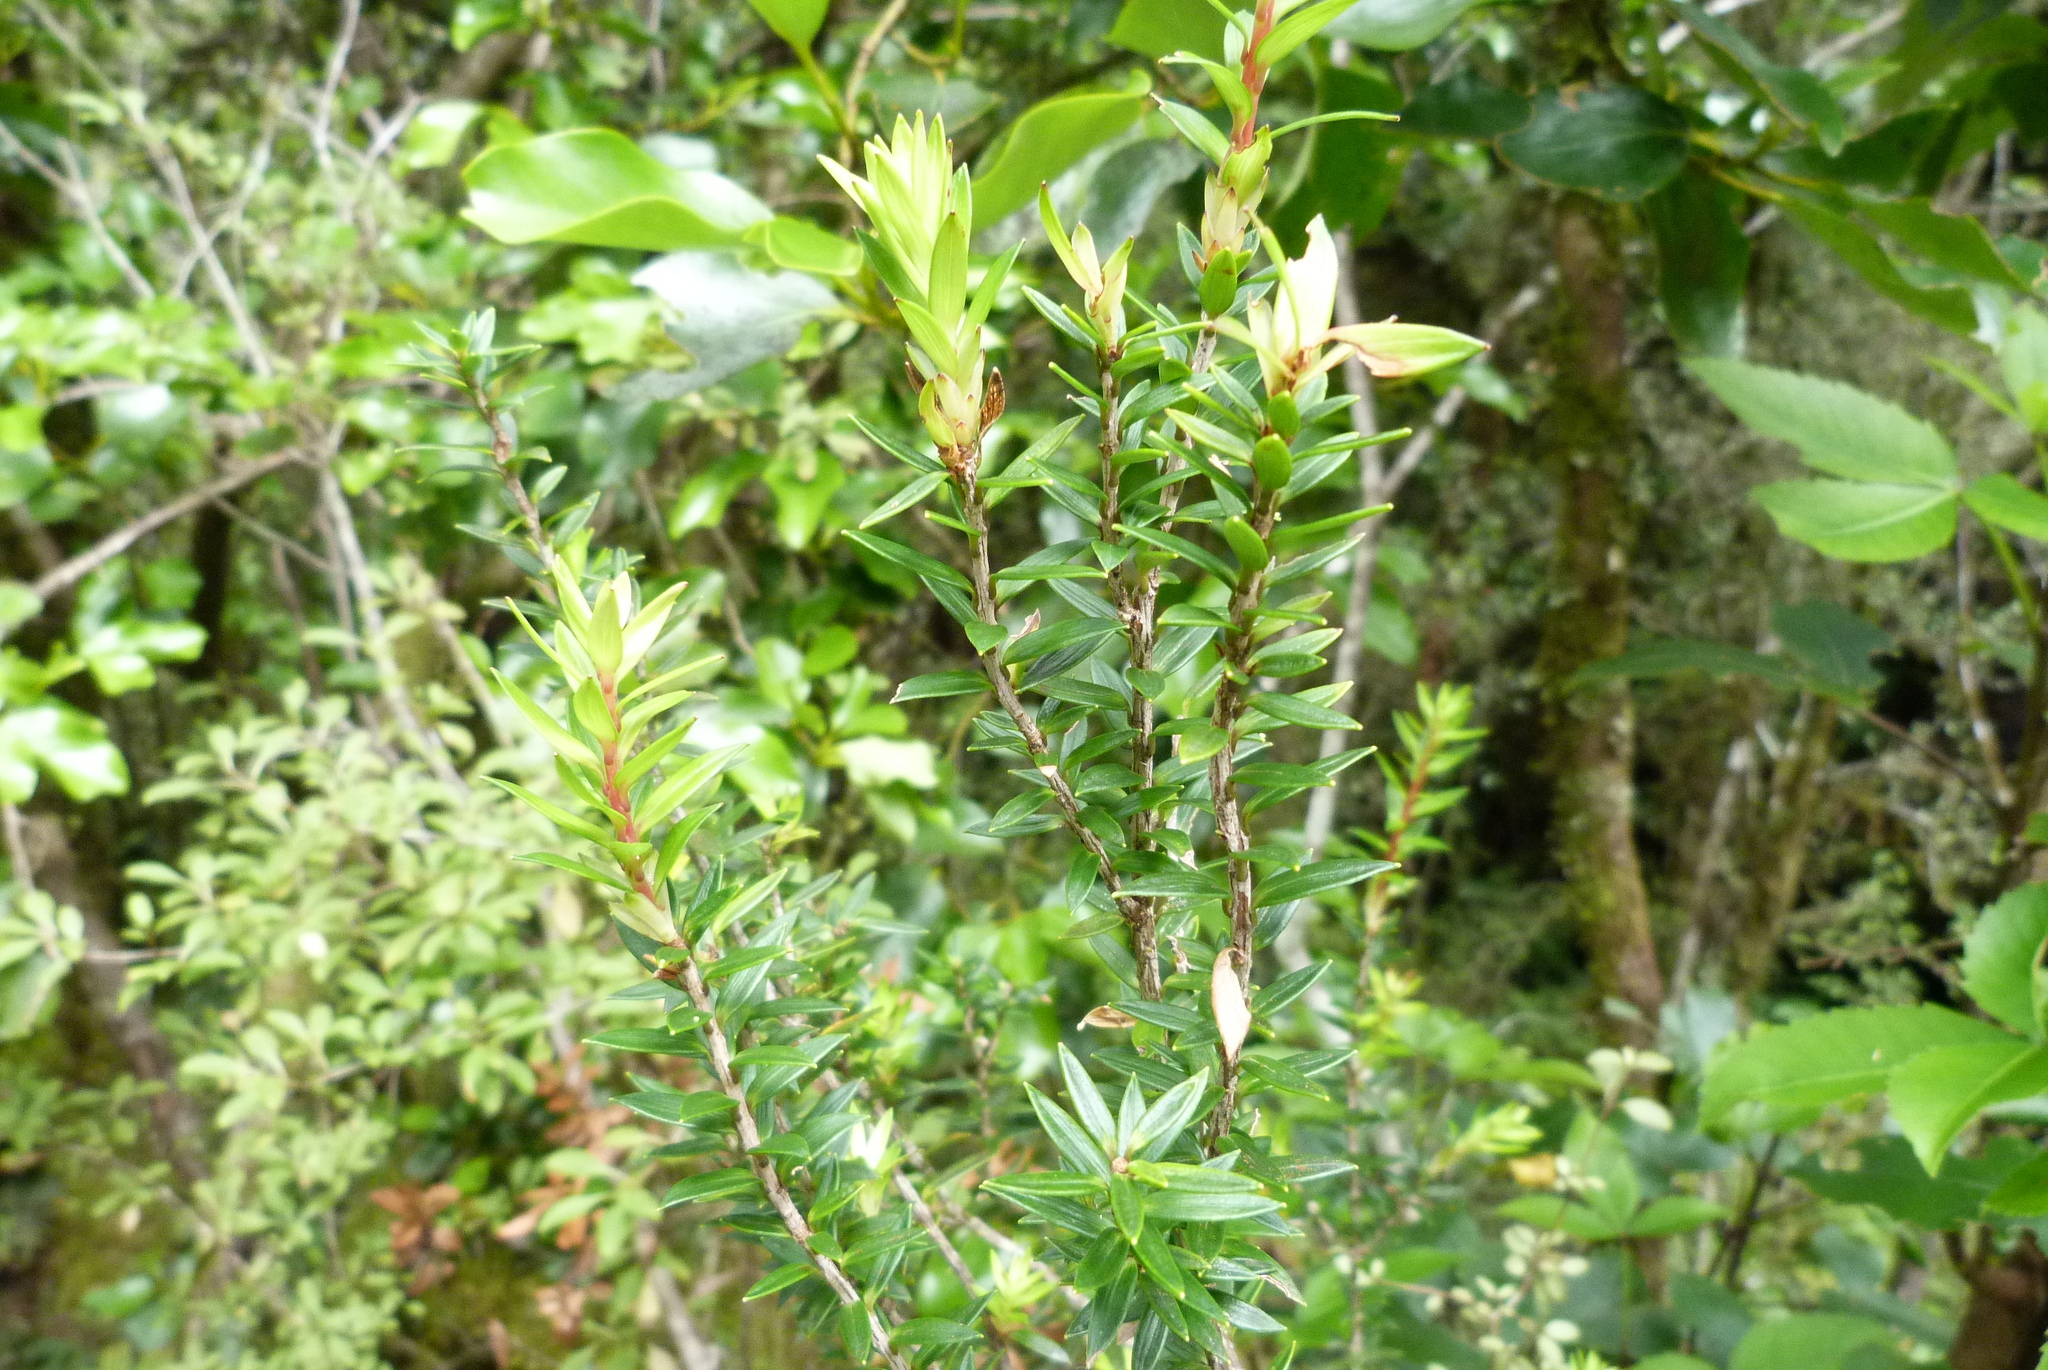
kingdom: Plantae
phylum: Tracheophyta
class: Magnoliopsida
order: Ericales
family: Ericaceae
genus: Archeria
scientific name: Archeria traversii
